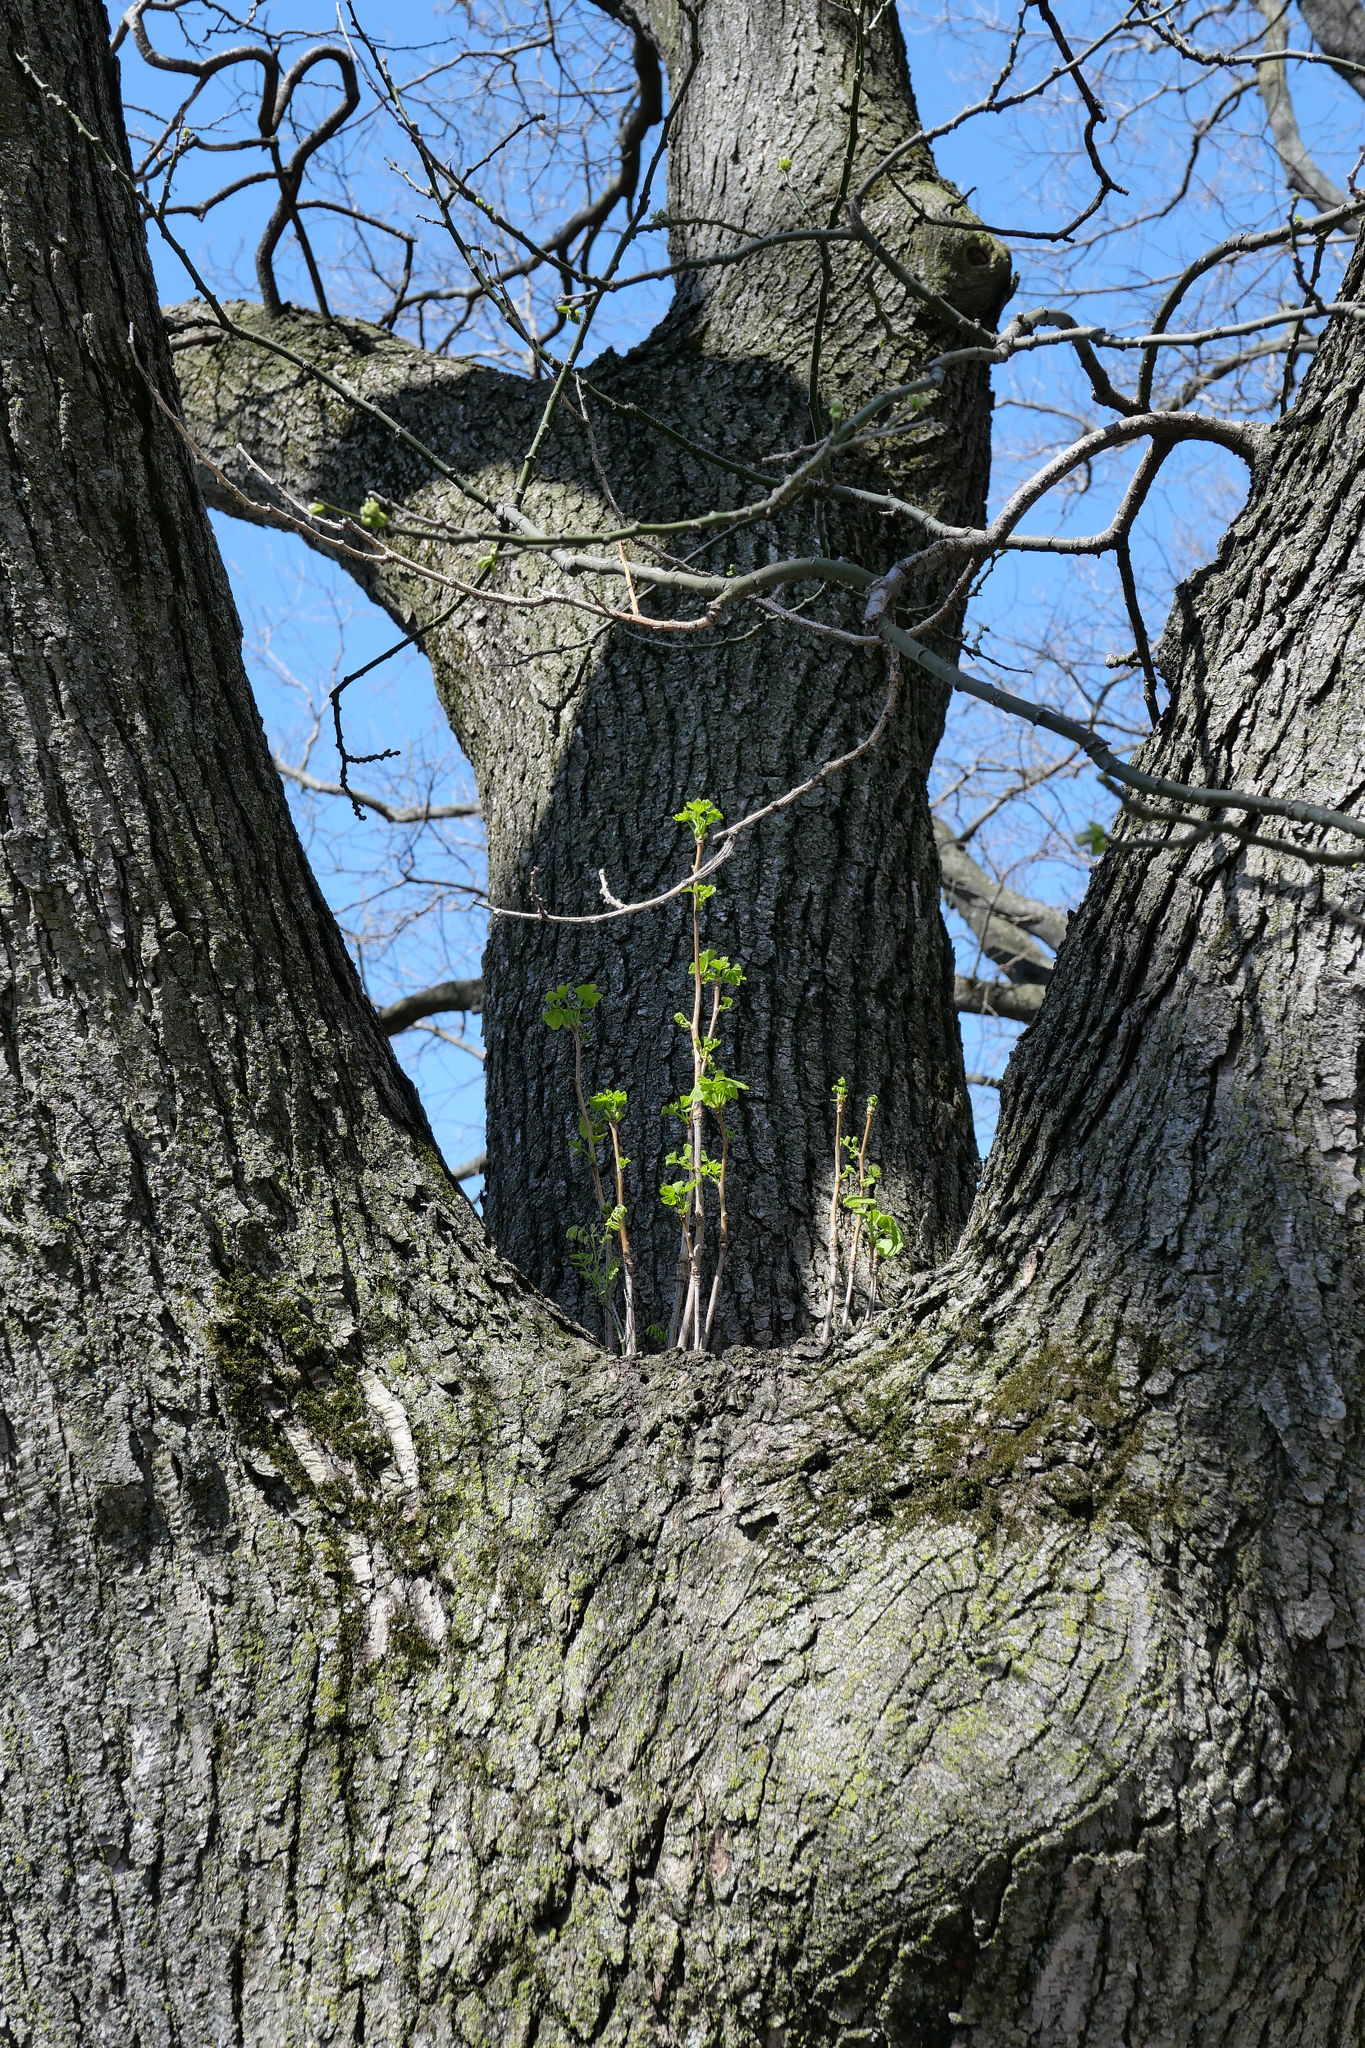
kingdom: Plantae
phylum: Tracheophyta
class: Ginkgoopsida
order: Ginkgoales
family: Ginkgoaceae
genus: Ginkgo
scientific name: Ginkgo biloba
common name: Ginkgo
